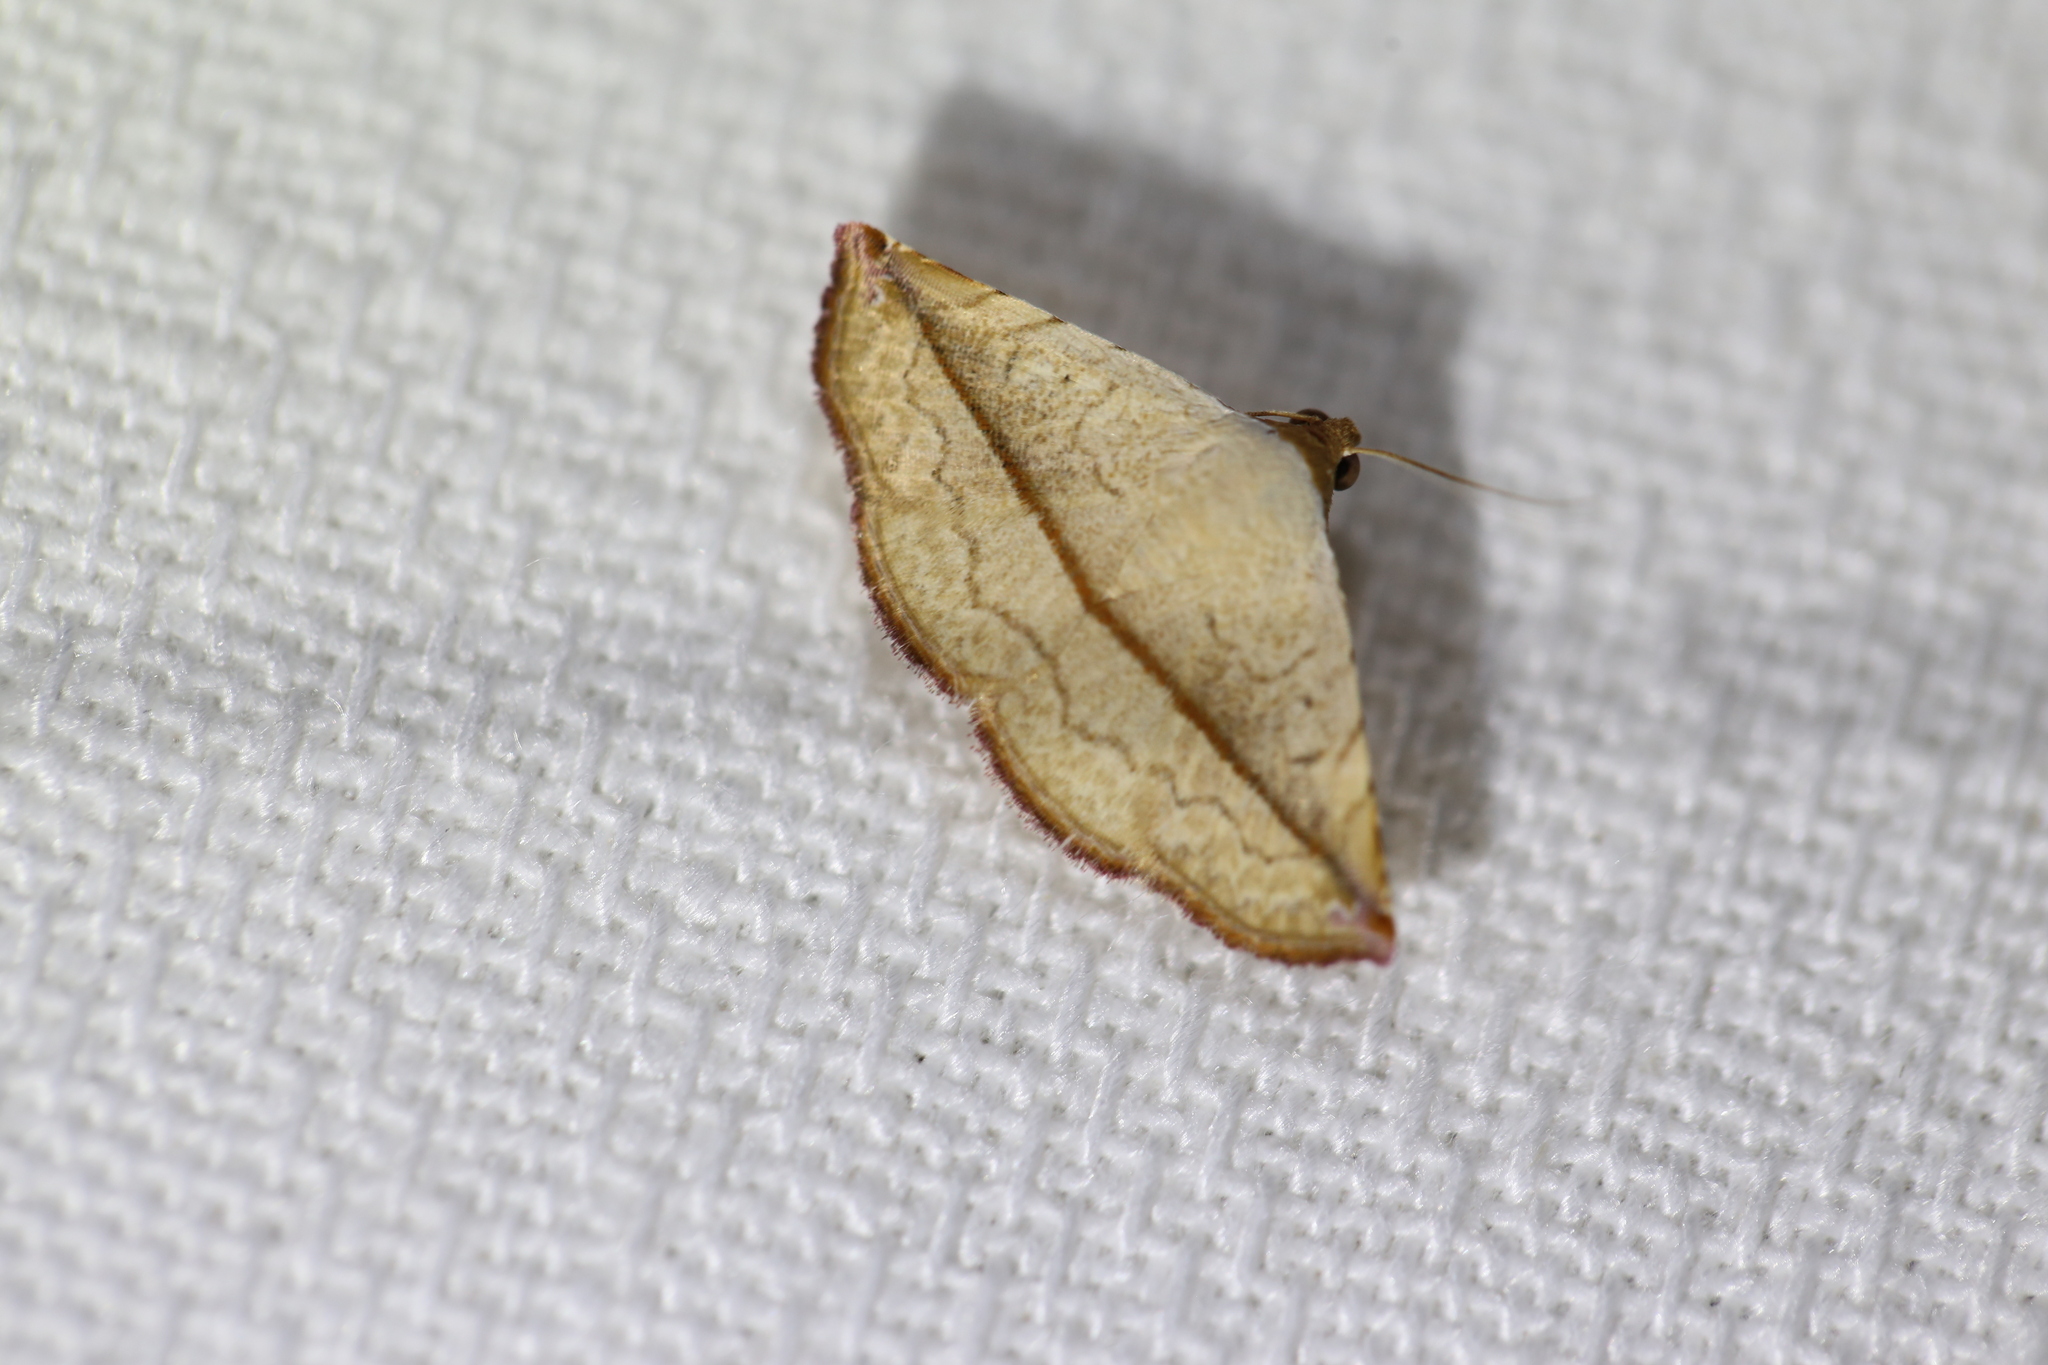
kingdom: Animalia
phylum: Arthropoda
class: Insecta
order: Lepidoptera
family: Noctuidae
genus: Eublemma
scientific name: Eublemma perversicolor
